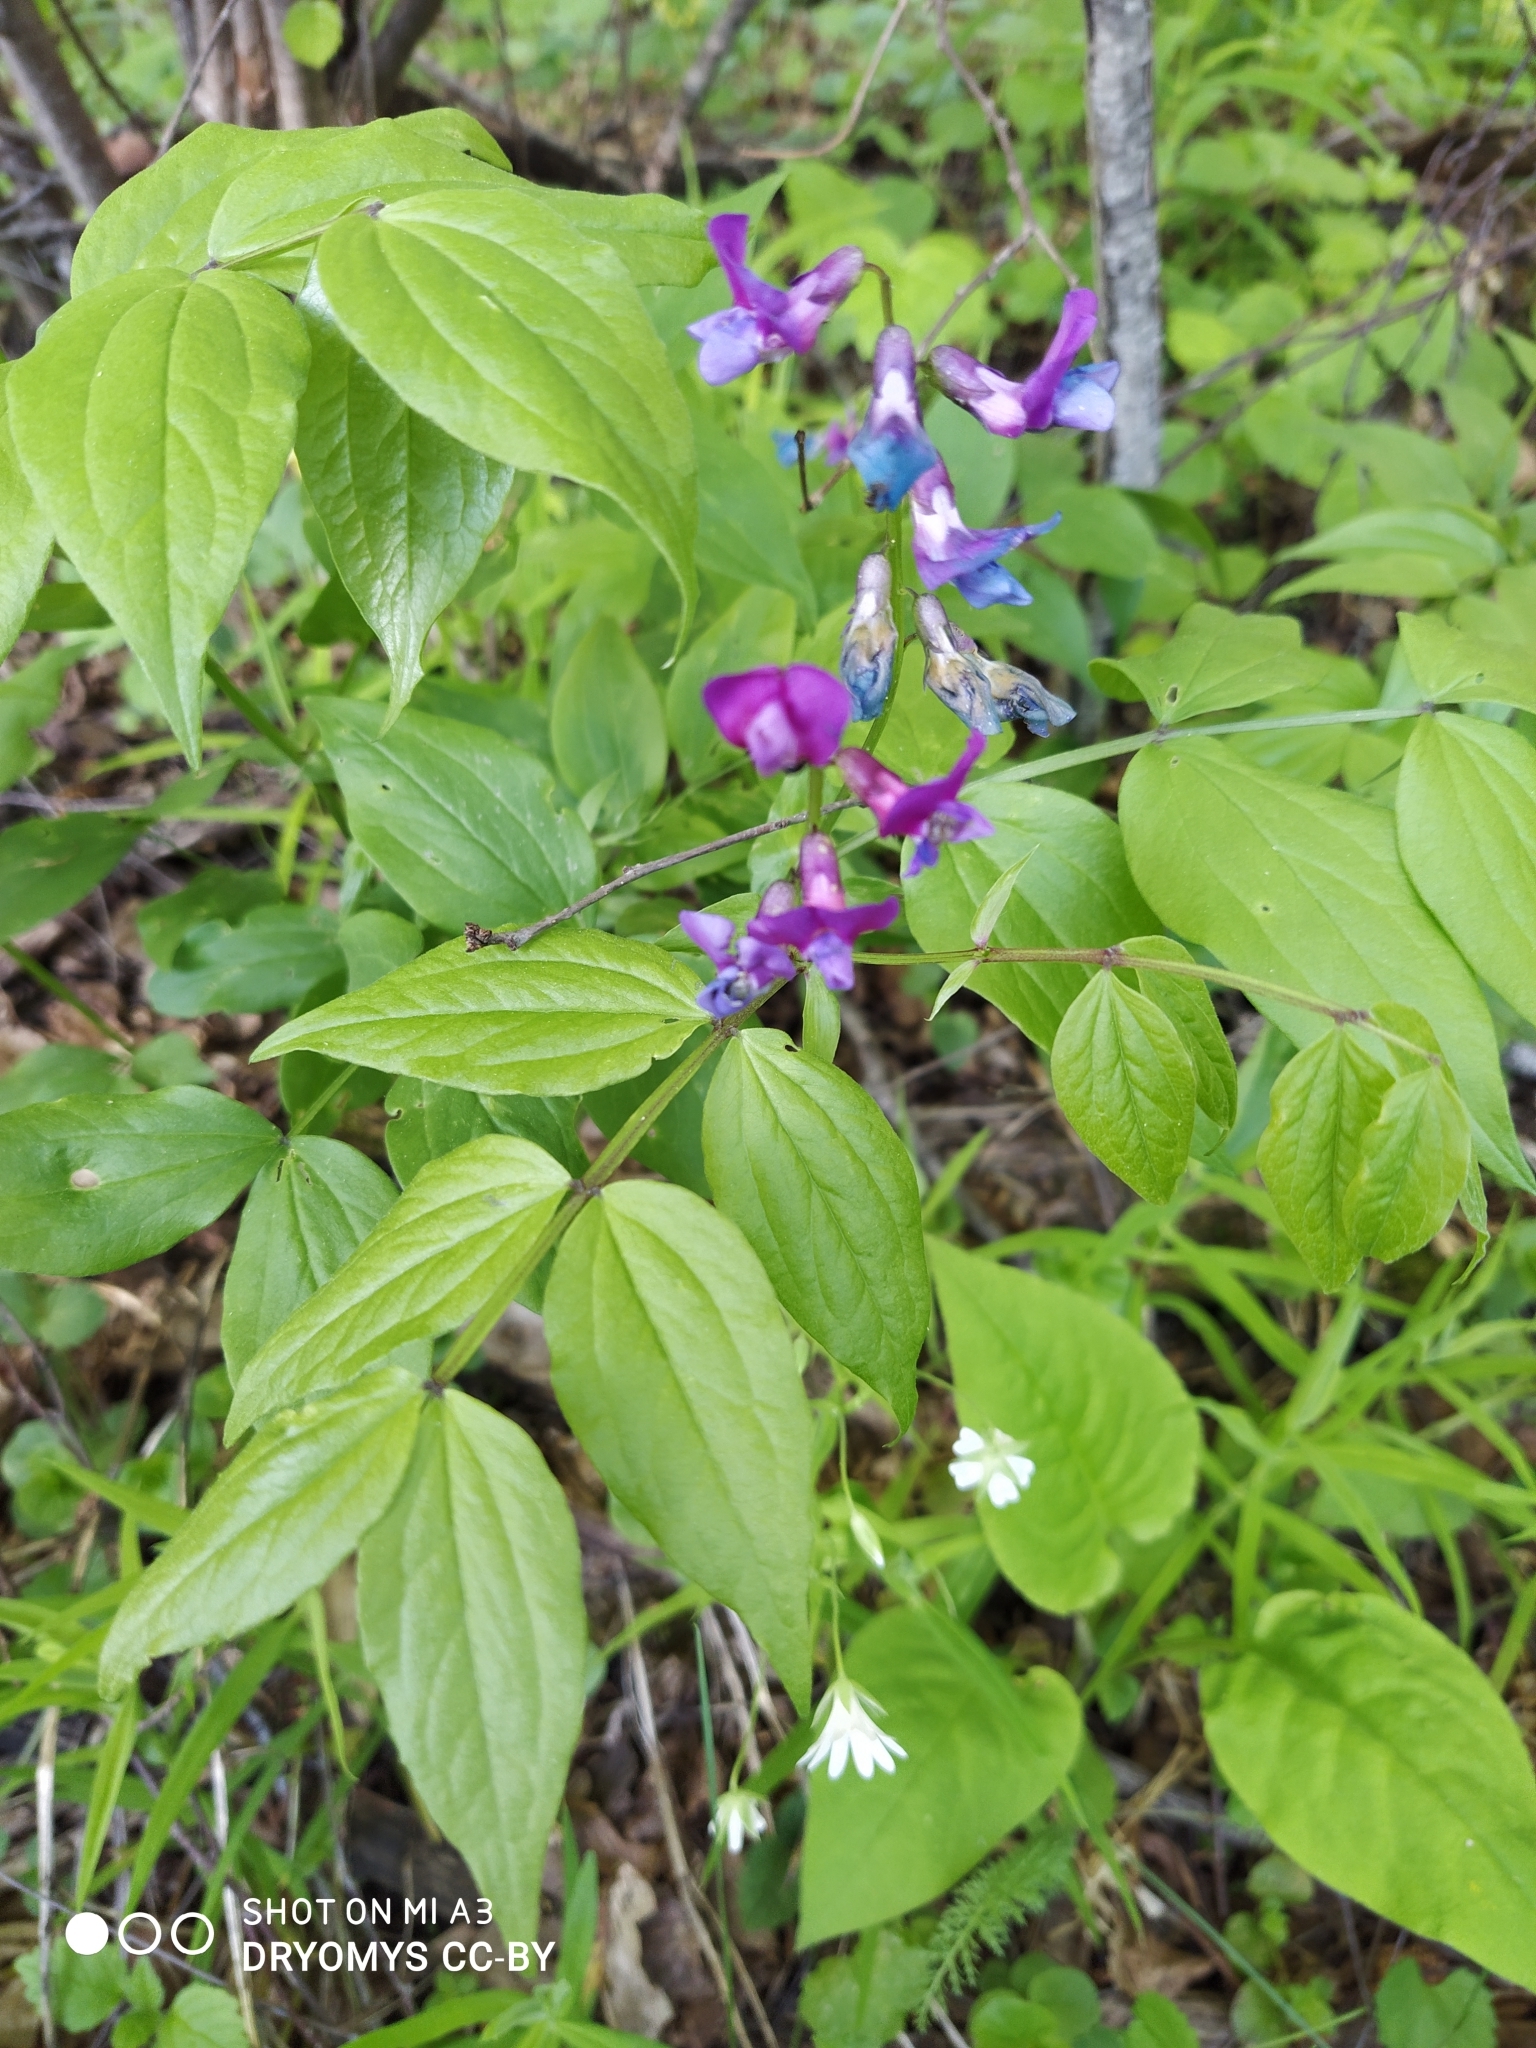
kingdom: Plantae
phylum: Tracheophyta
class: Magnoliopsida
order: Fabales
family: Fabaceae
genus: Lathyrus
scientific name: Lathyrus vernus
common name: Spring pea
